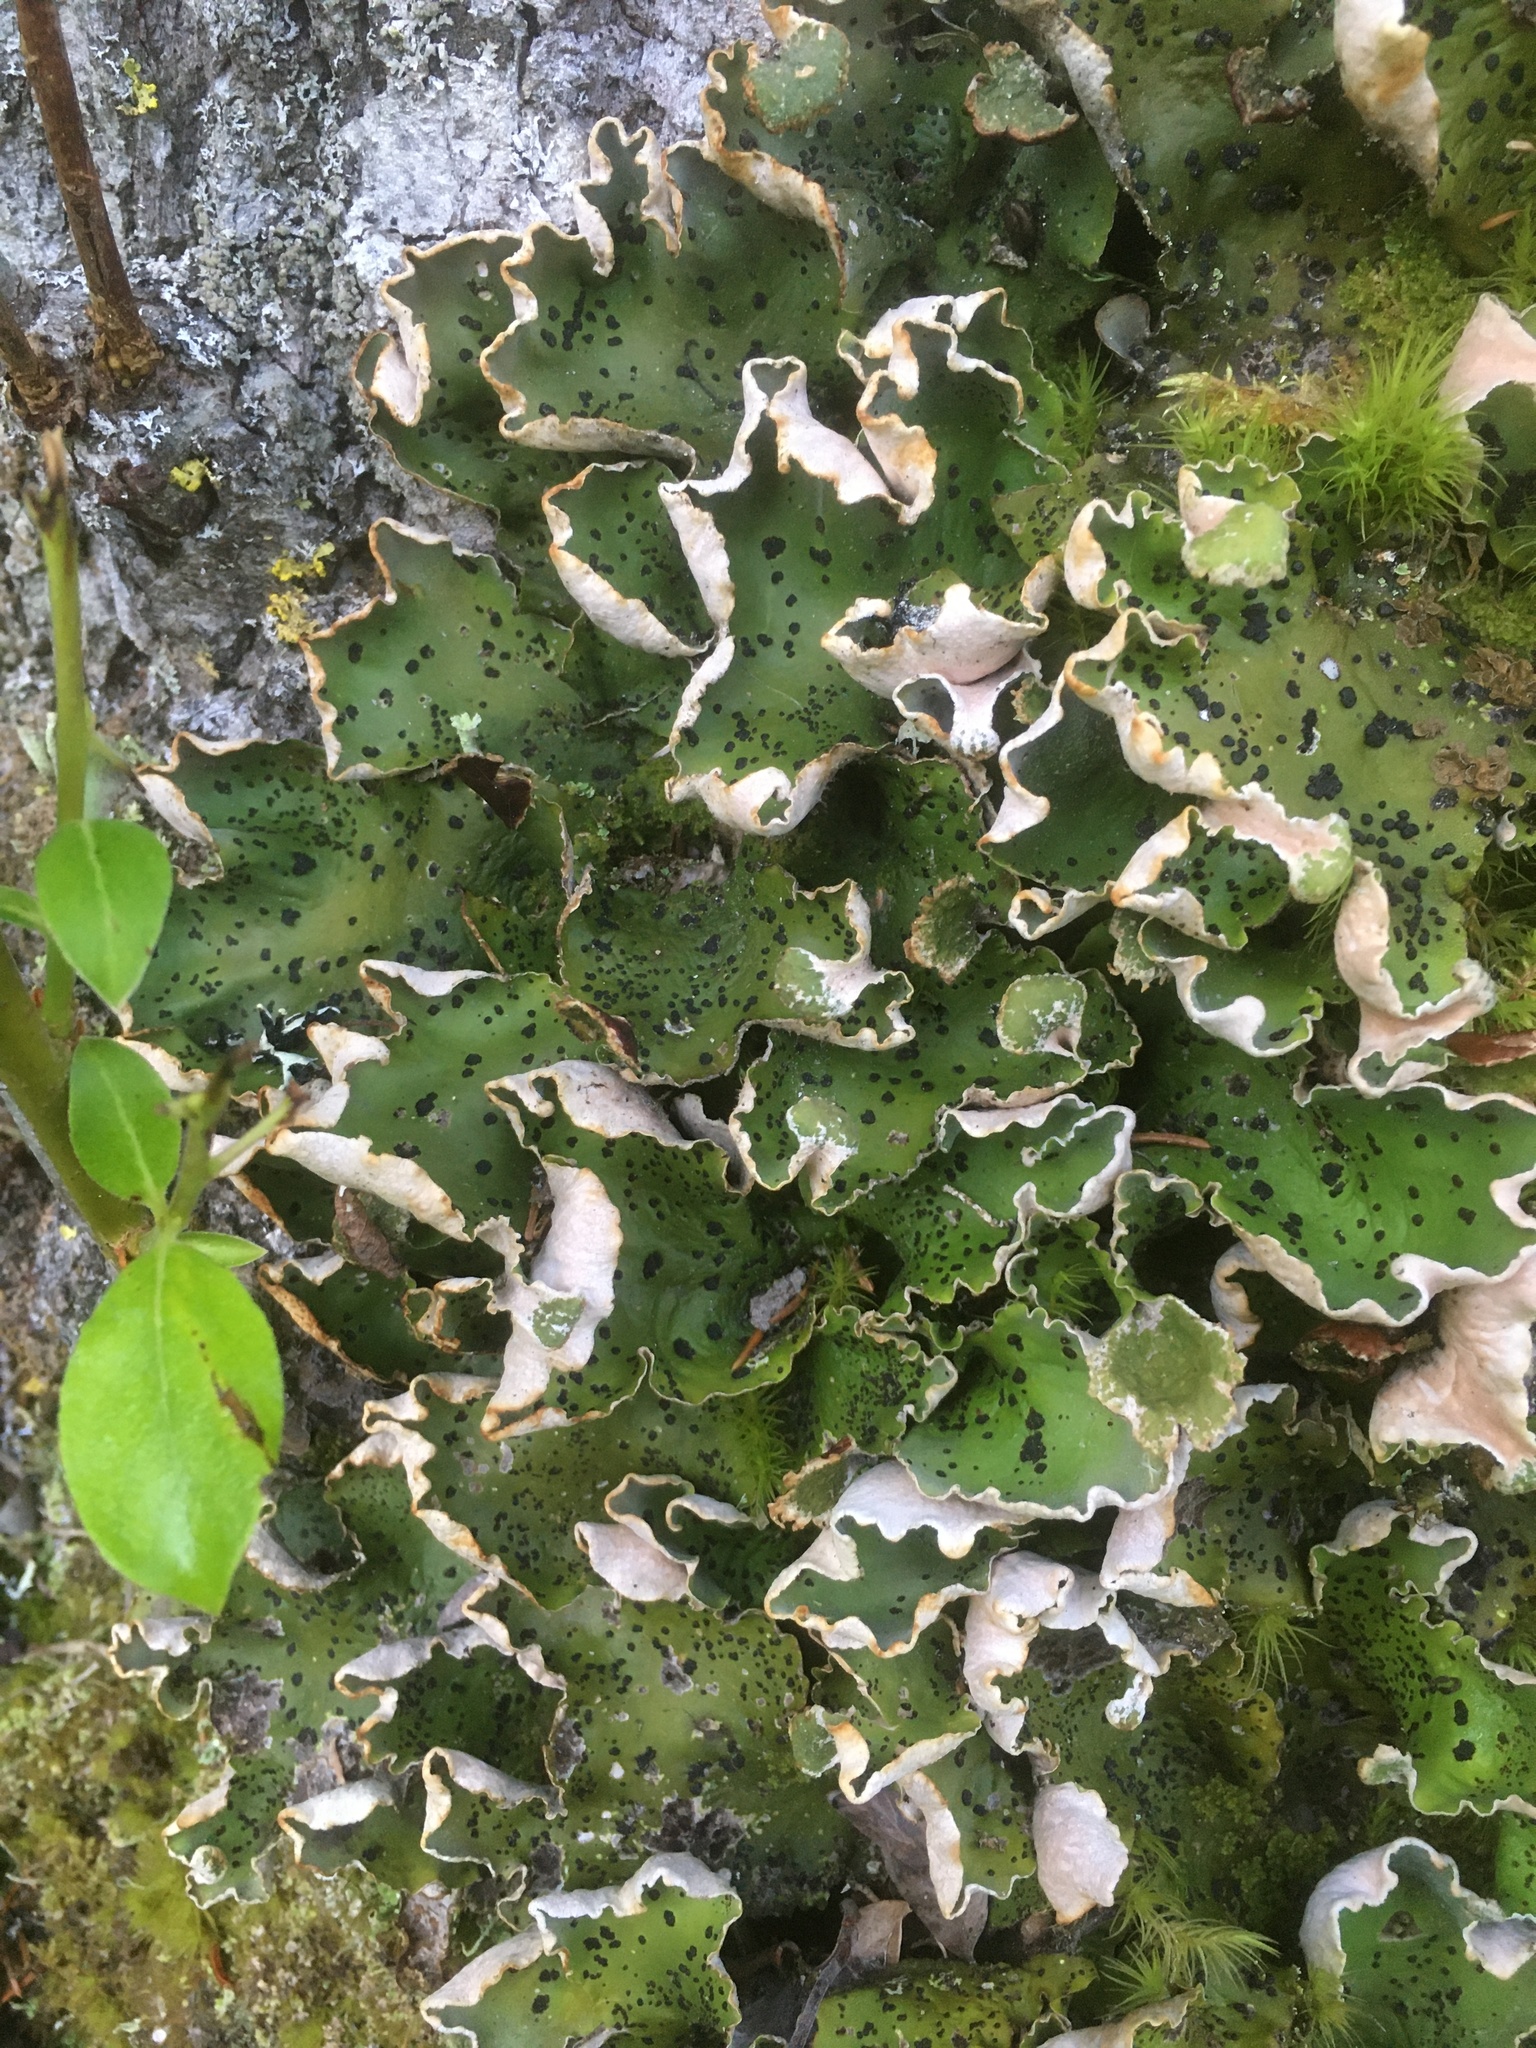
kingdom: Fungi
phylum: Ascomycota
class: Lecanoromycetes
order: Peltigerales
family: Peltigeraceae
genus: Peltigera
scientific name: Peltigera aphthosa
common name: Common freckle pelt lichen
